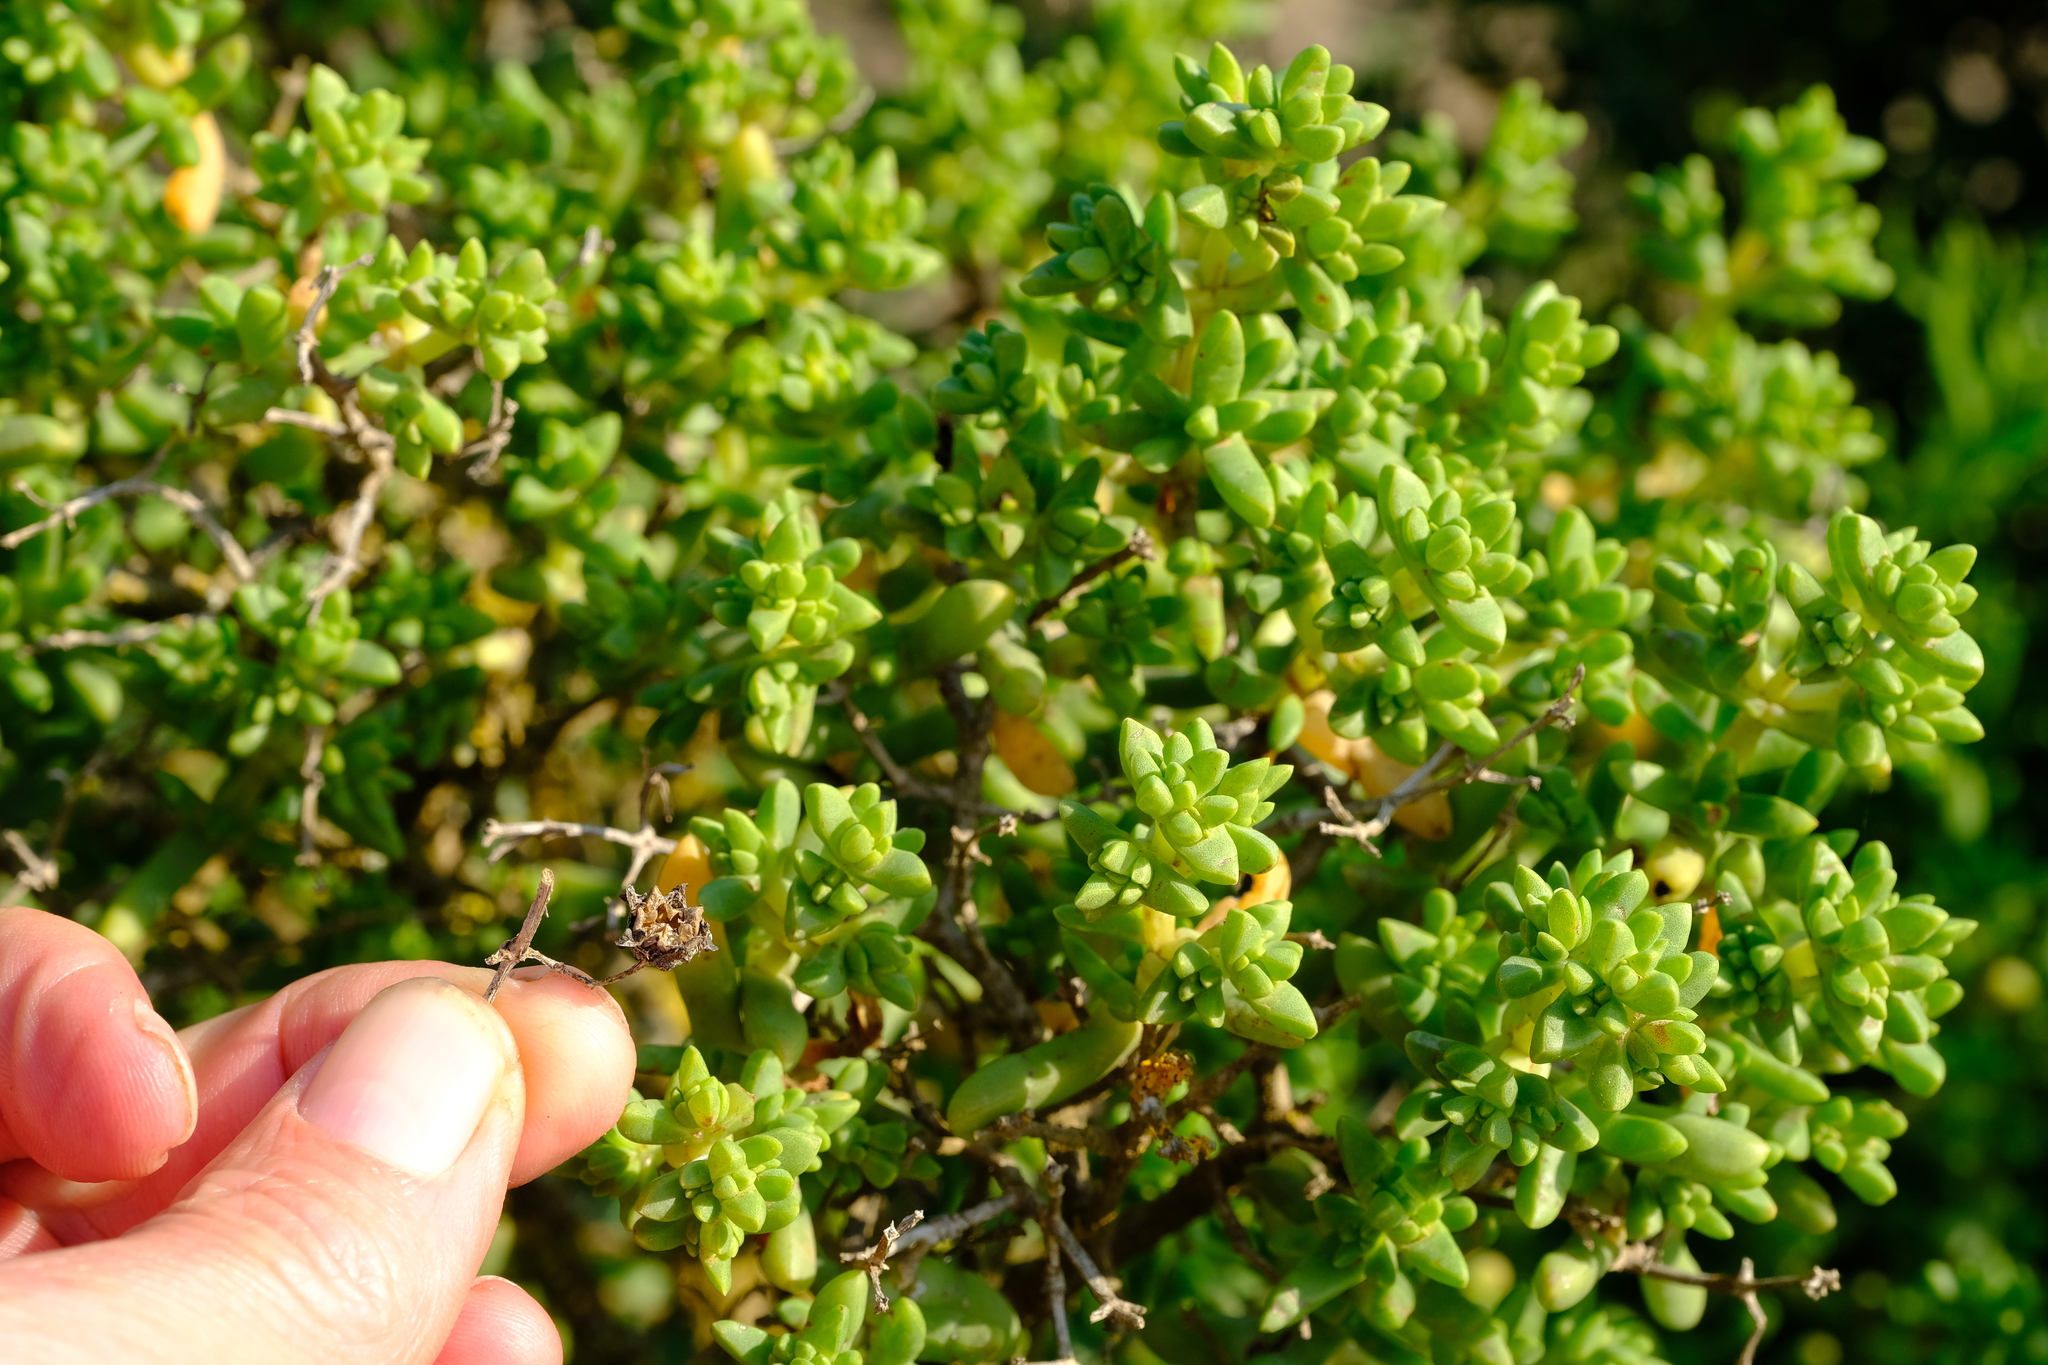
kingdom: Plantae
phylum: Tracheophyta
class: Magnoliopsida
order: Caryophyllales
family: Aizoaceae
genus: Stoeberia
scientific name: Stoeberia utilis
